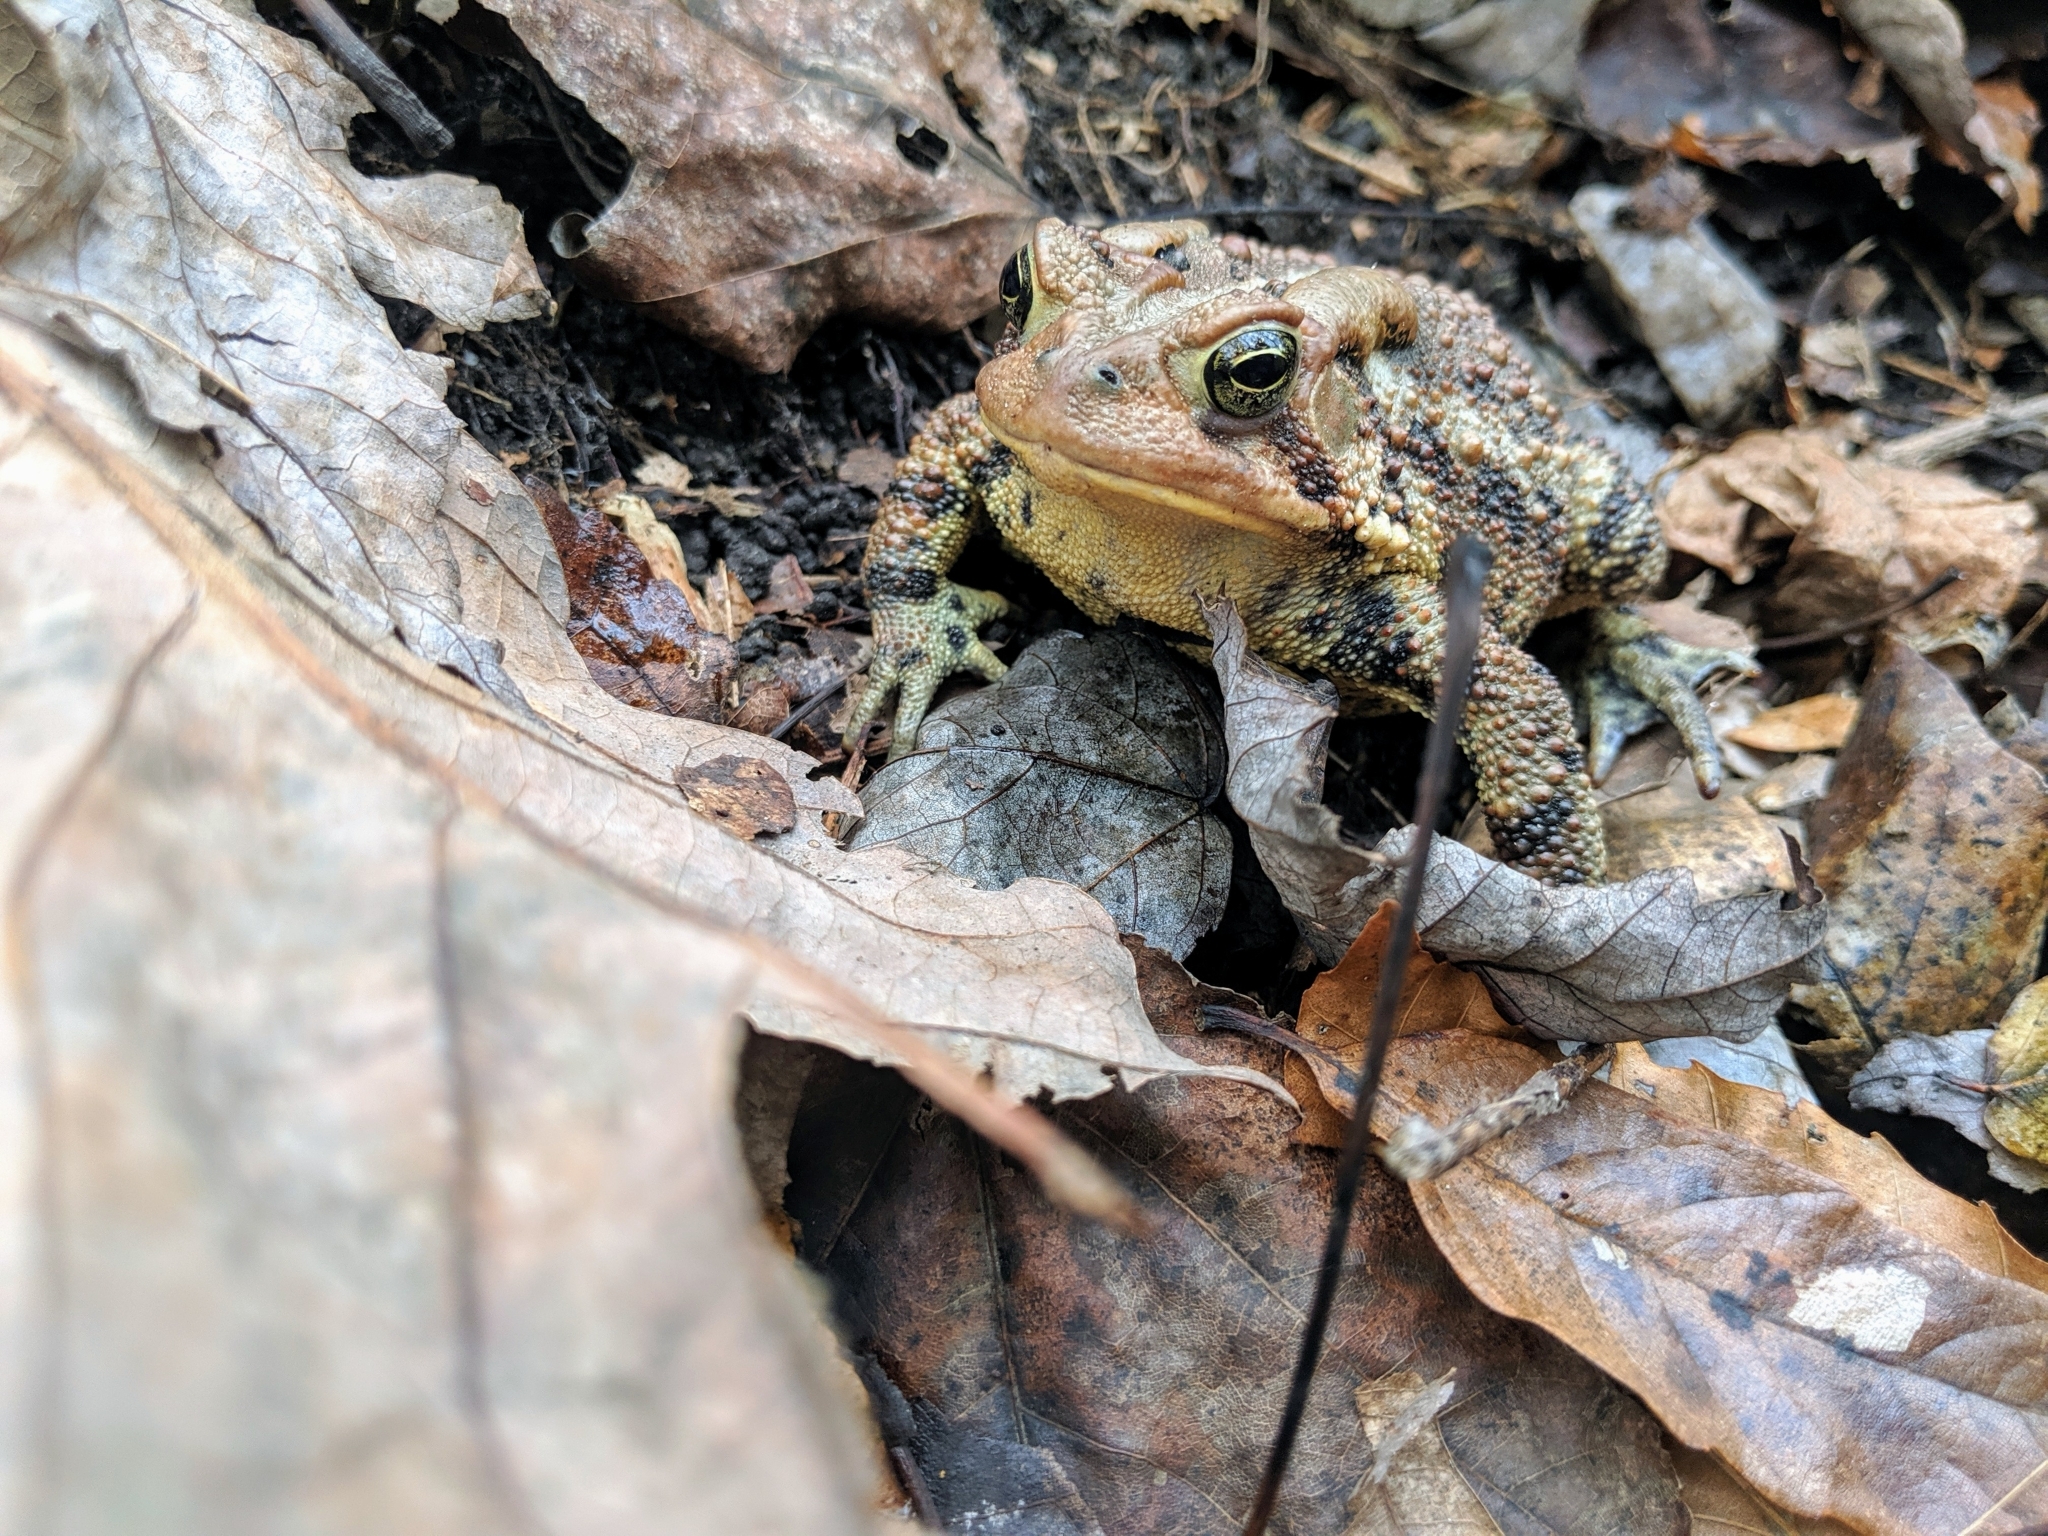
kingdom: Animalia
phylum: Chordata
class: Amphibia
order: Anura
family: Bufonidae
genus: Anaxyrus
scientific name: Anaxyrus americanus
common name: American toad
